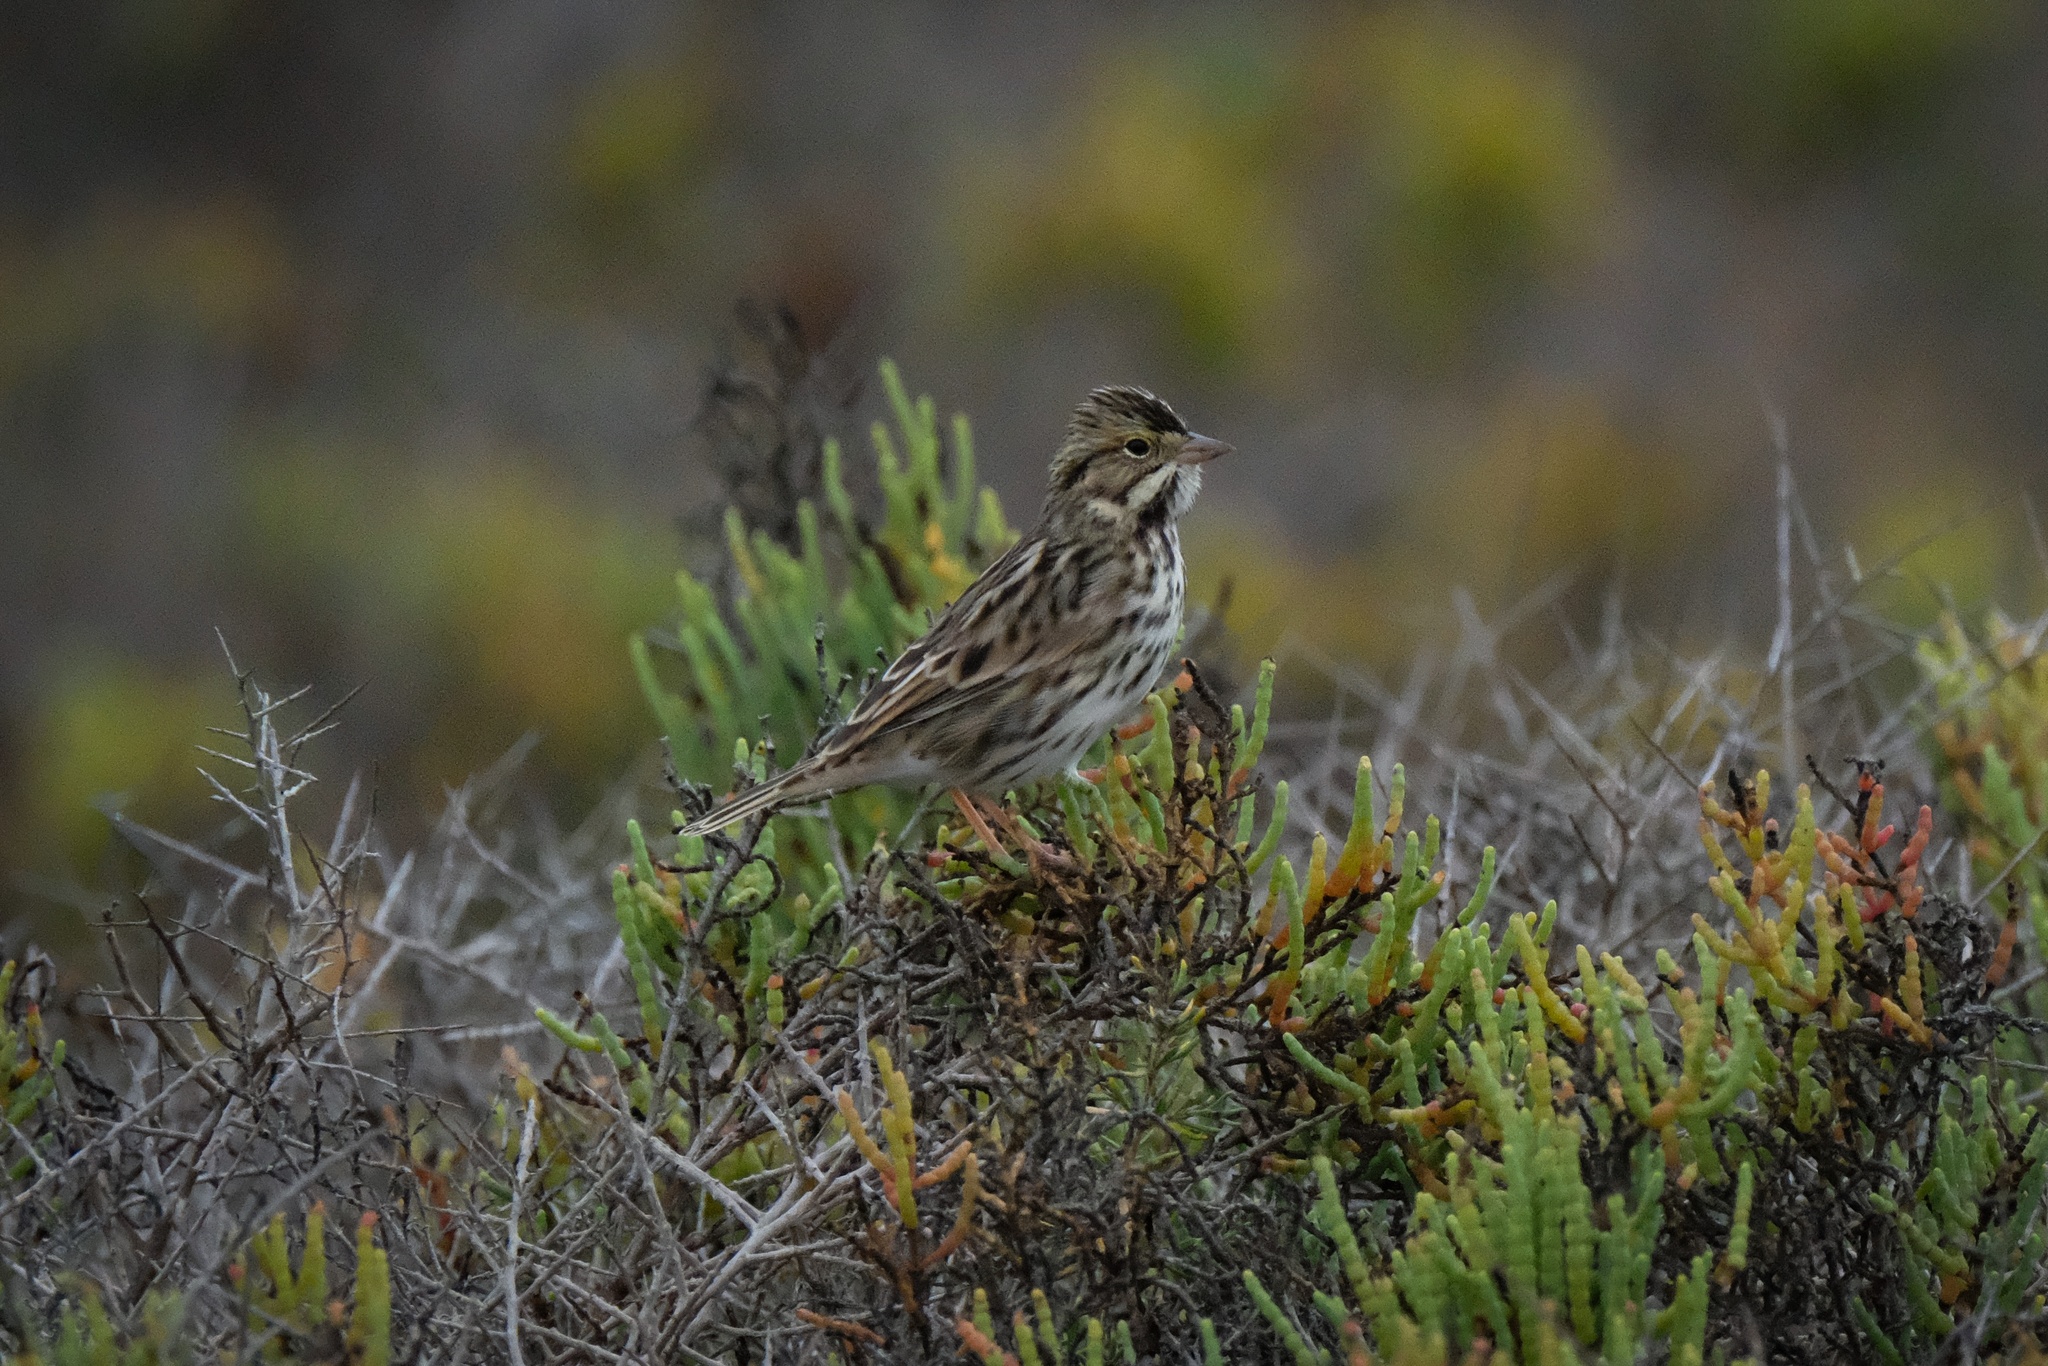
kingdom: Animalia
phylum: Chordata
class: Aves
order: Passeriformes
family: Passerellidae
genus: Passerculus
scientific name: Passerculus sandwichensis
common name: Savannah sparrow
